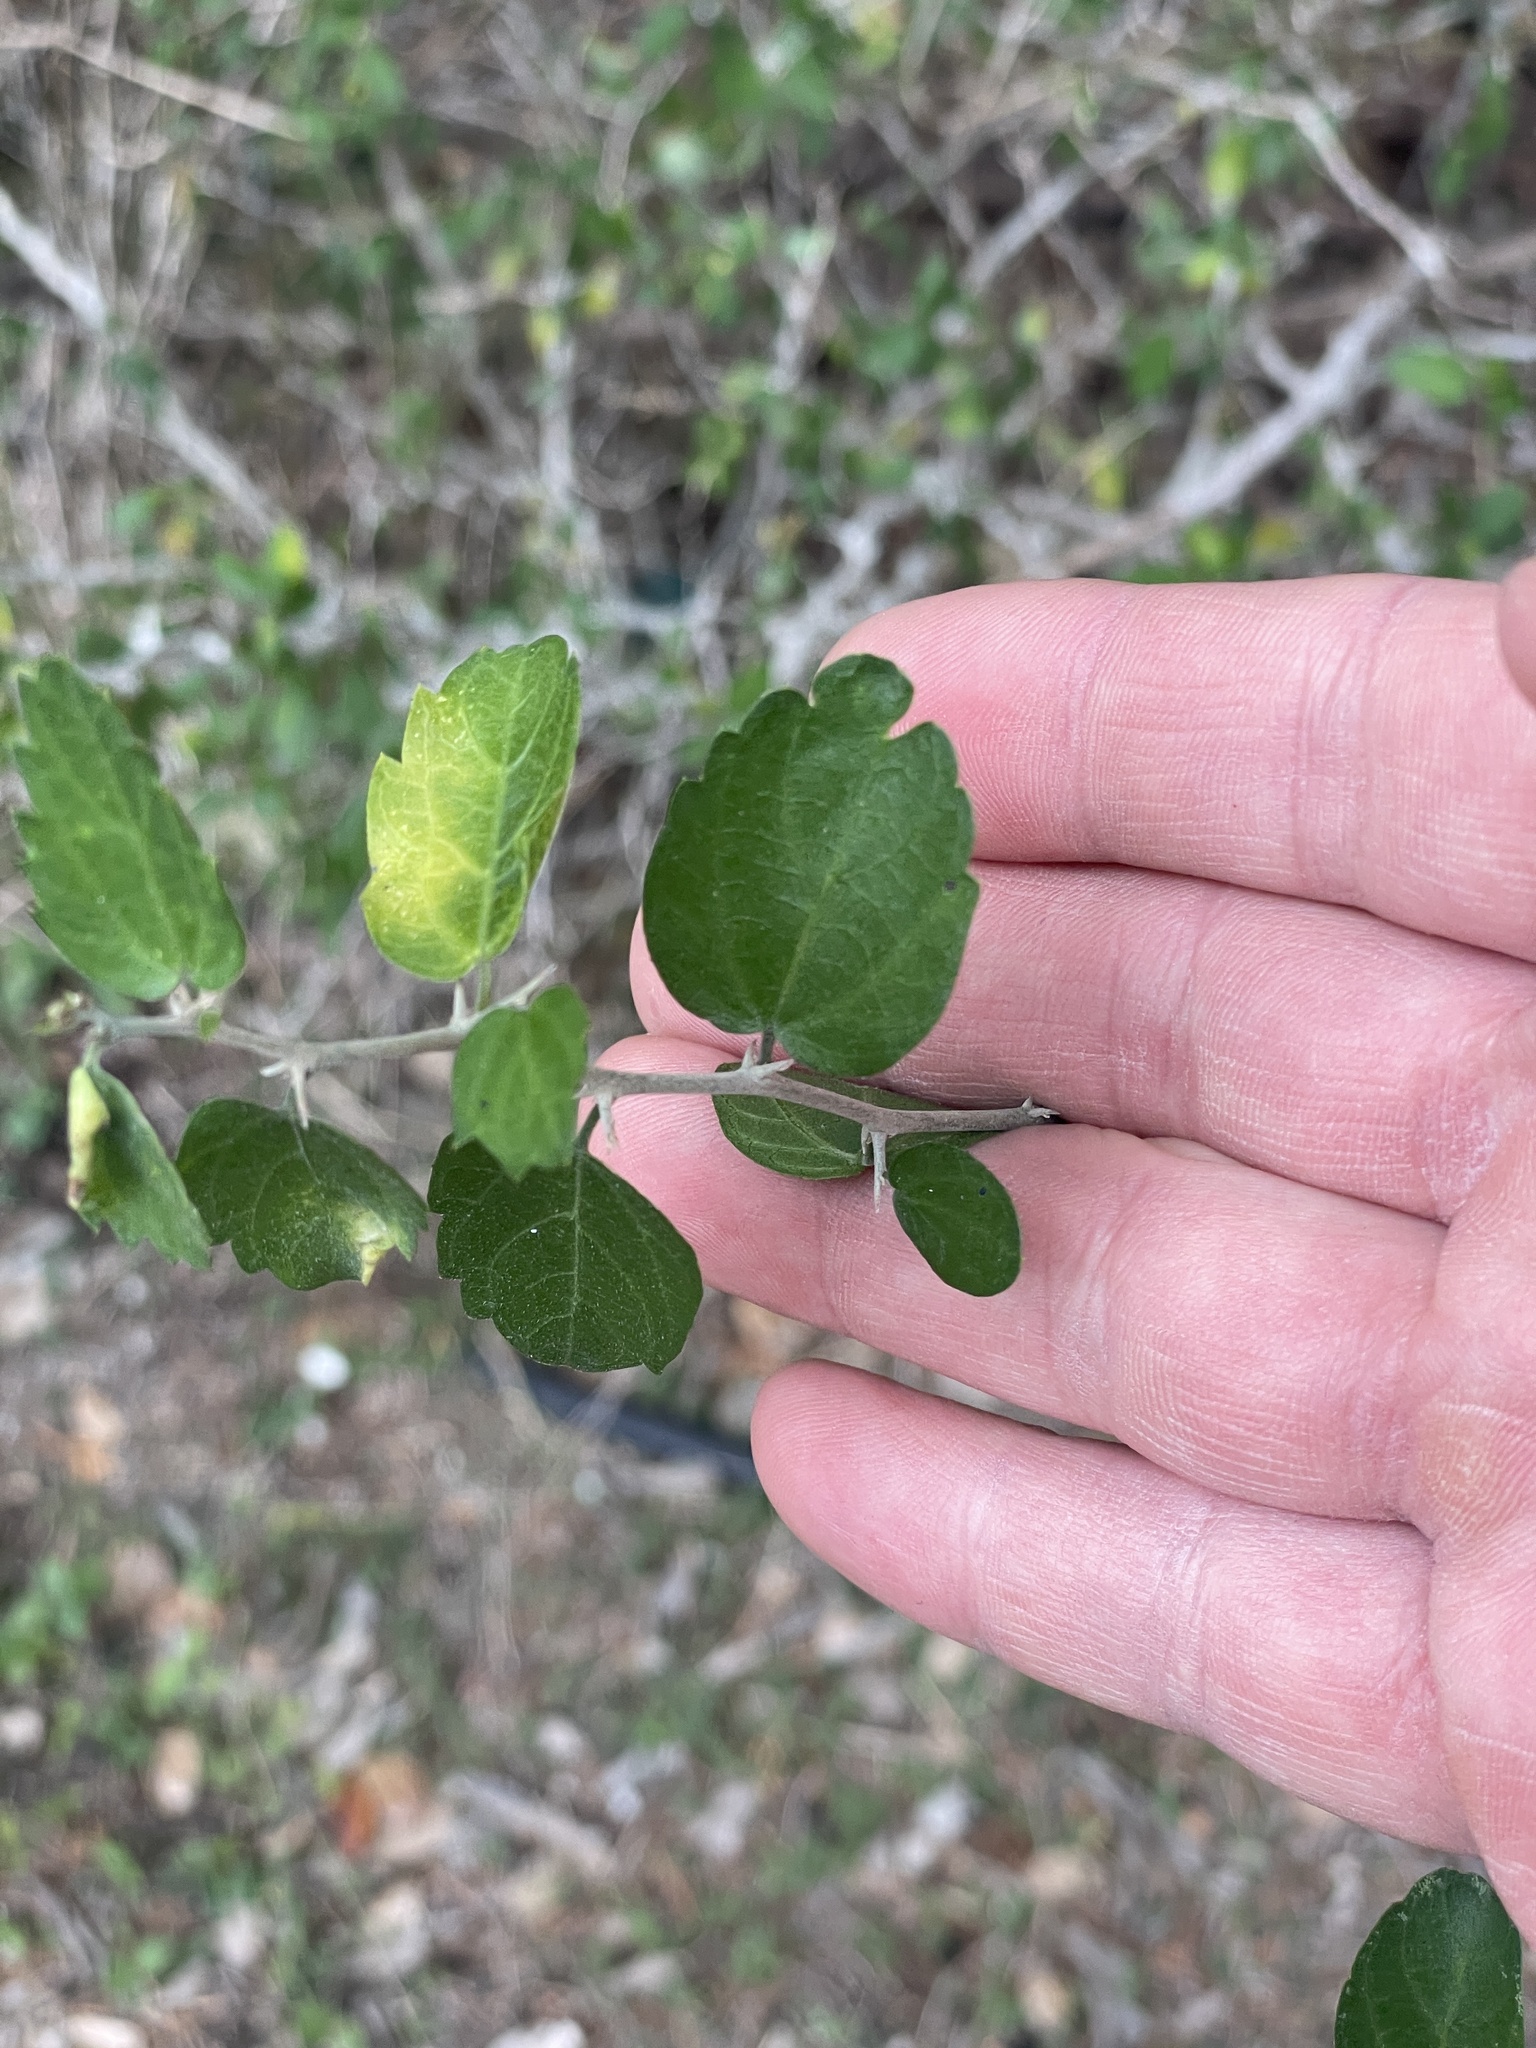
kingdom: Plantae
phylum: Tracheophyta
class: Magnoliopsida
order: Rosales
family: Cannabaceae
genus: Celtis
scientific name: Celtis pallida
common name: Desert hackberry
